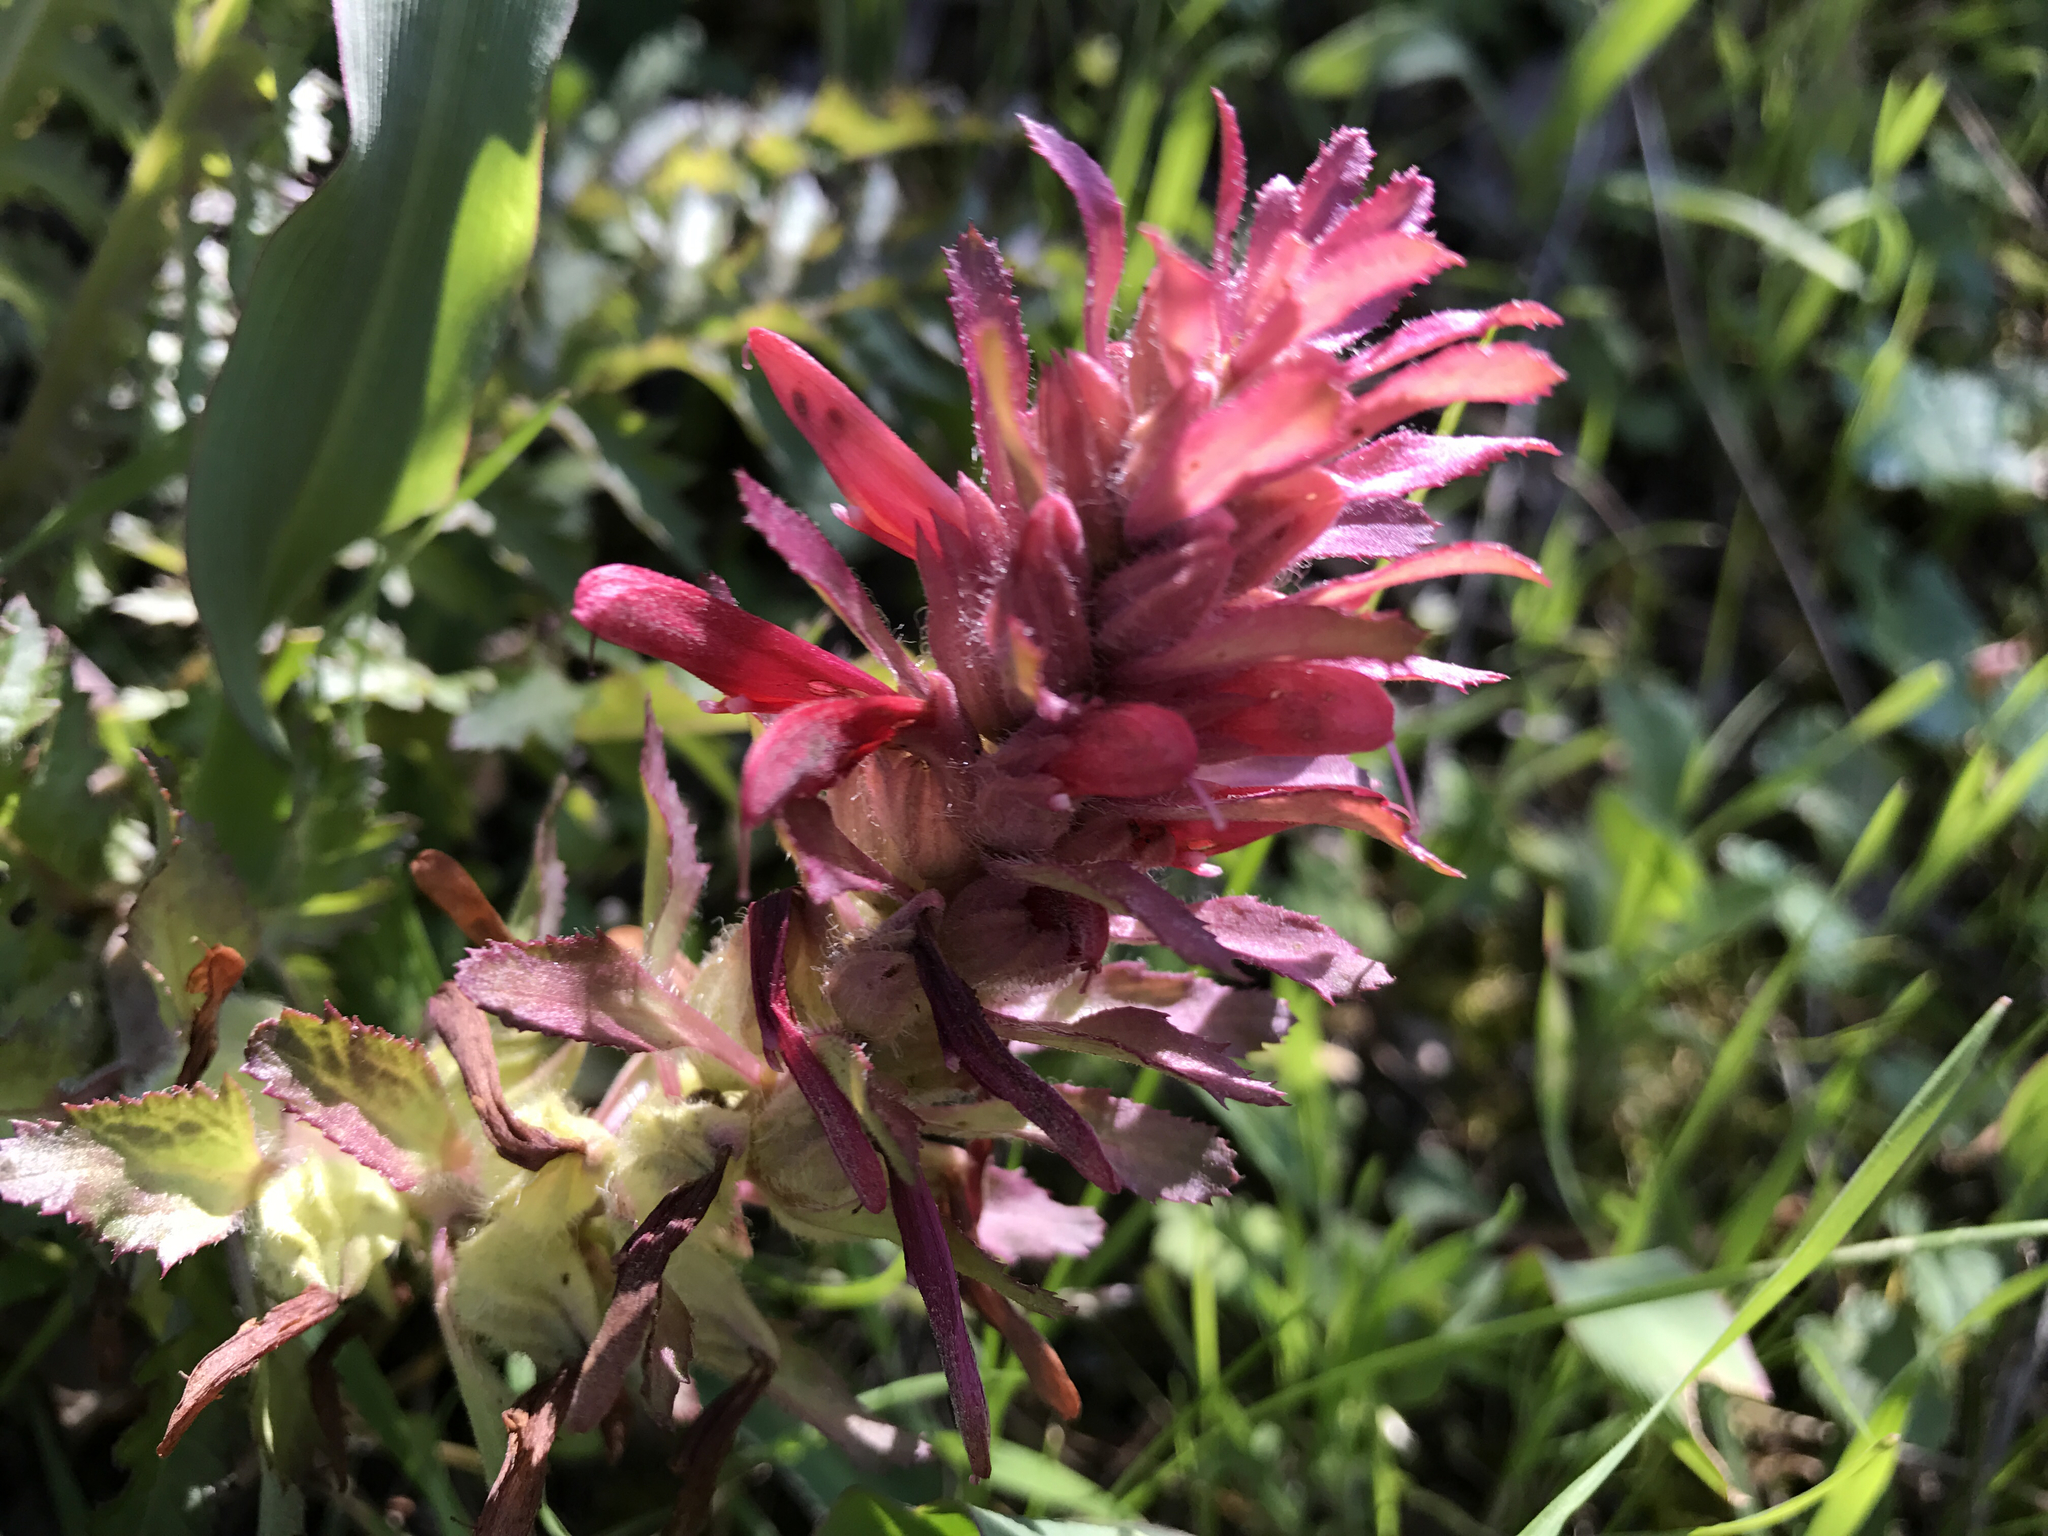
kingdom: Plantae
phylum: Tracheophyta
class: Magnoliopsida
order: Lamiales
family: Orobanchaceae
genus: Pedicularis
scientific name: Pedicularis densiflora
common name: Indian warrior
